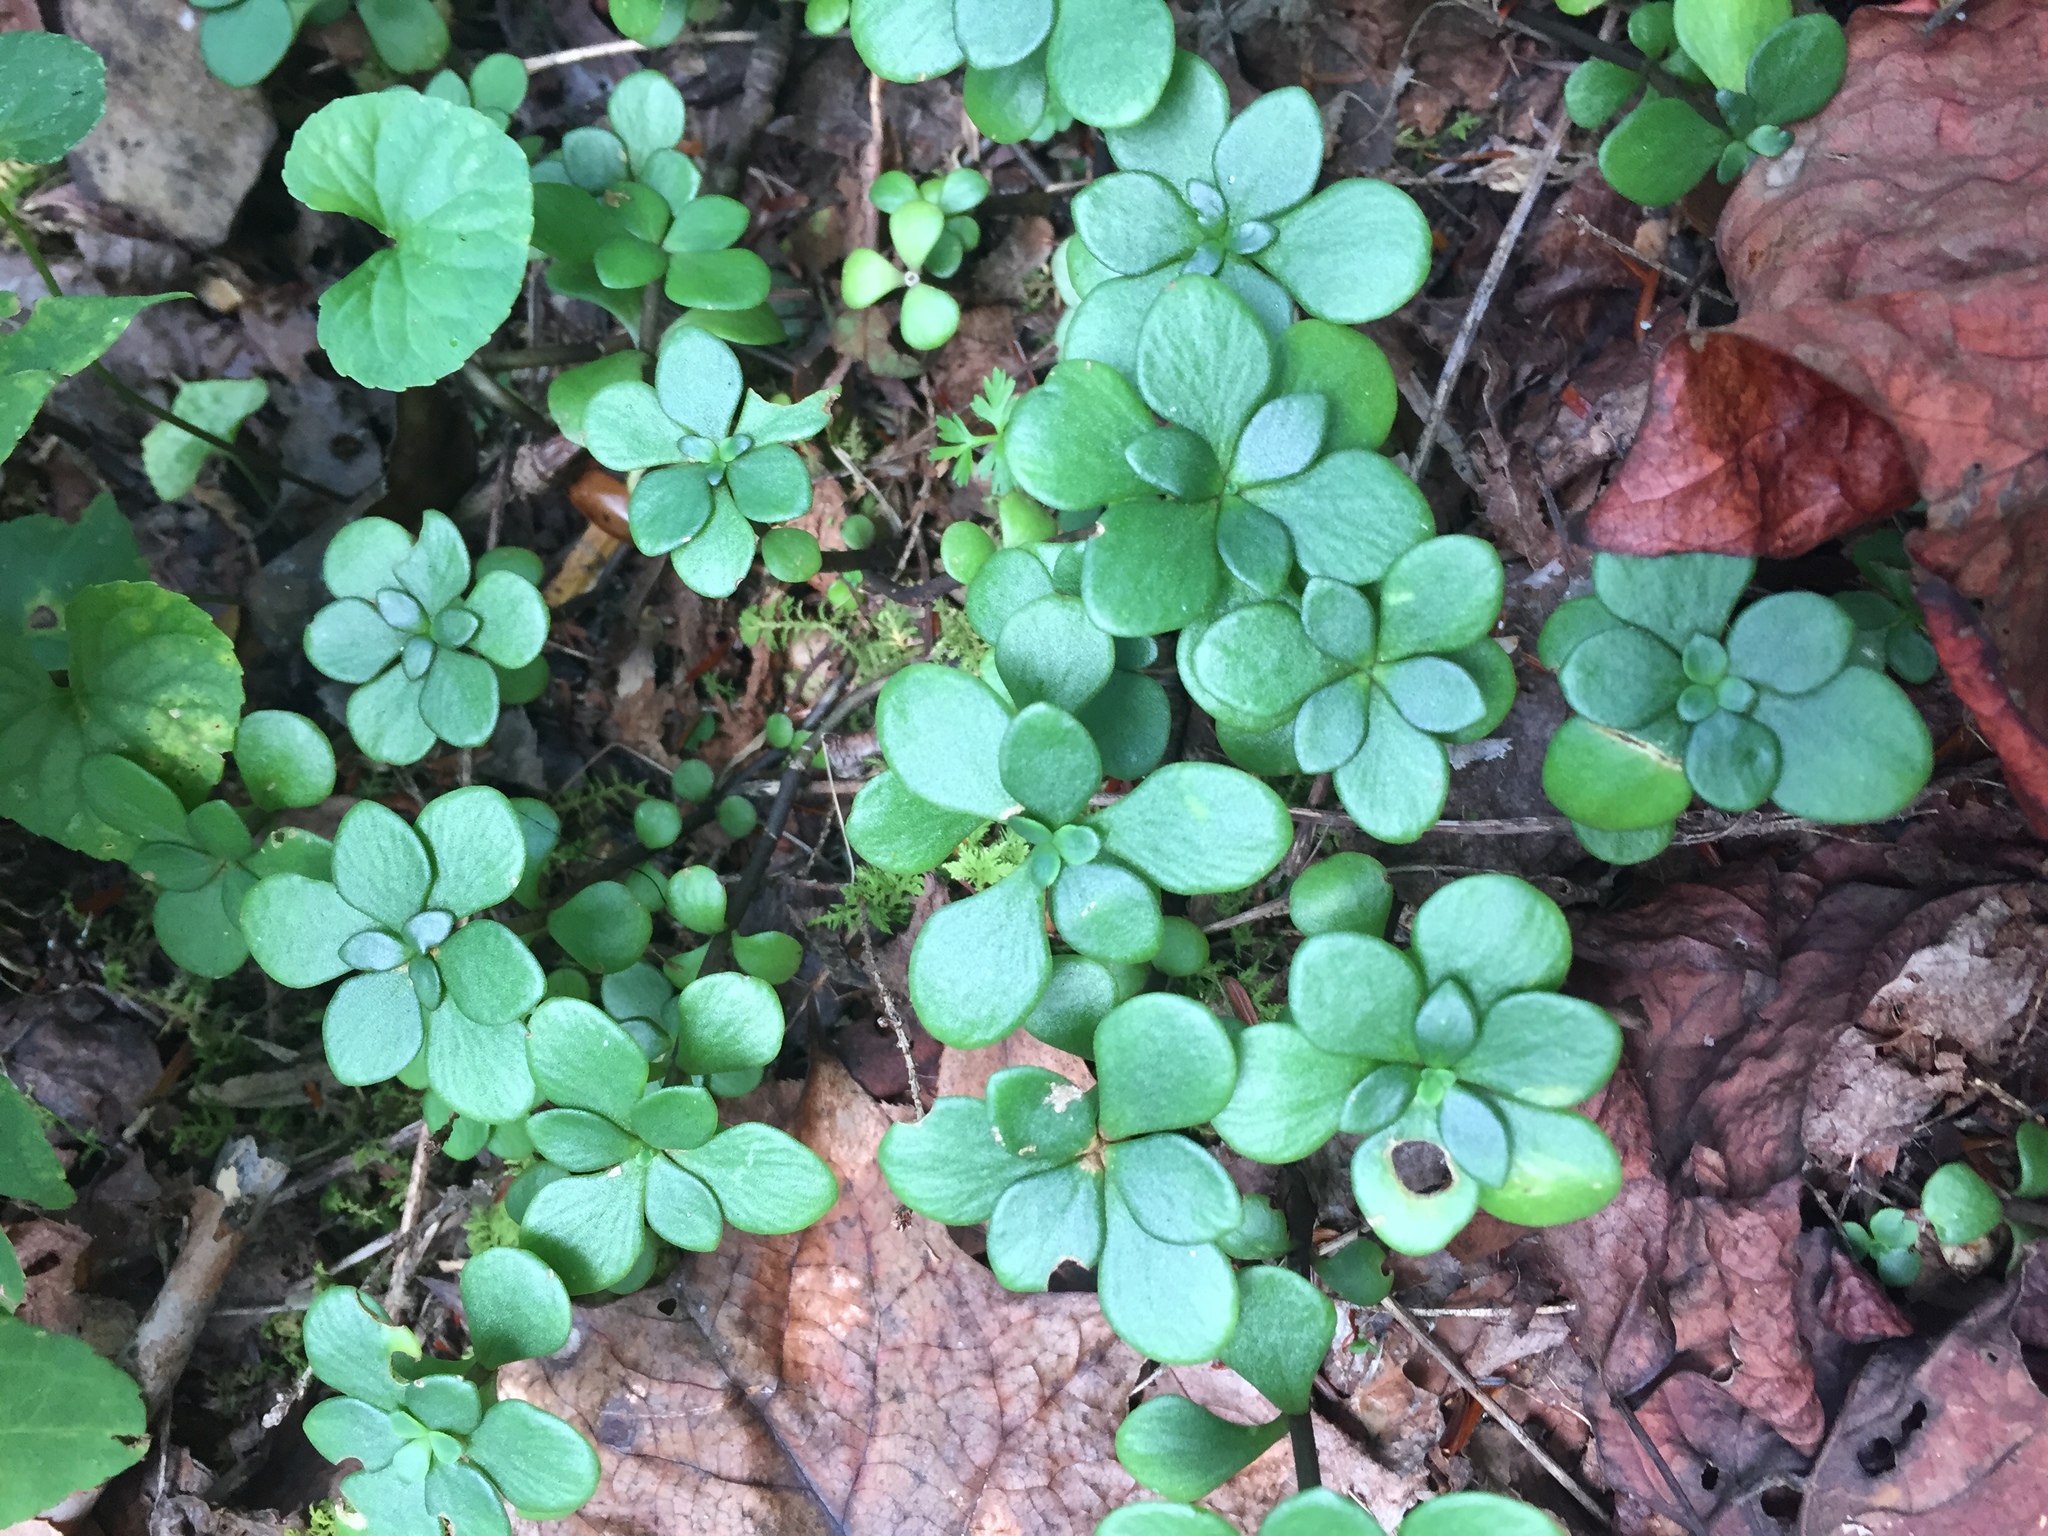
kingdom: Plantae
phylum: Tracheophyta
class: Magnoliopsida
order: Saxifragales
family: Crassulaceae
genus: Sedum
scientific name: Sedum ternatum
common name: Wild stonecrop
